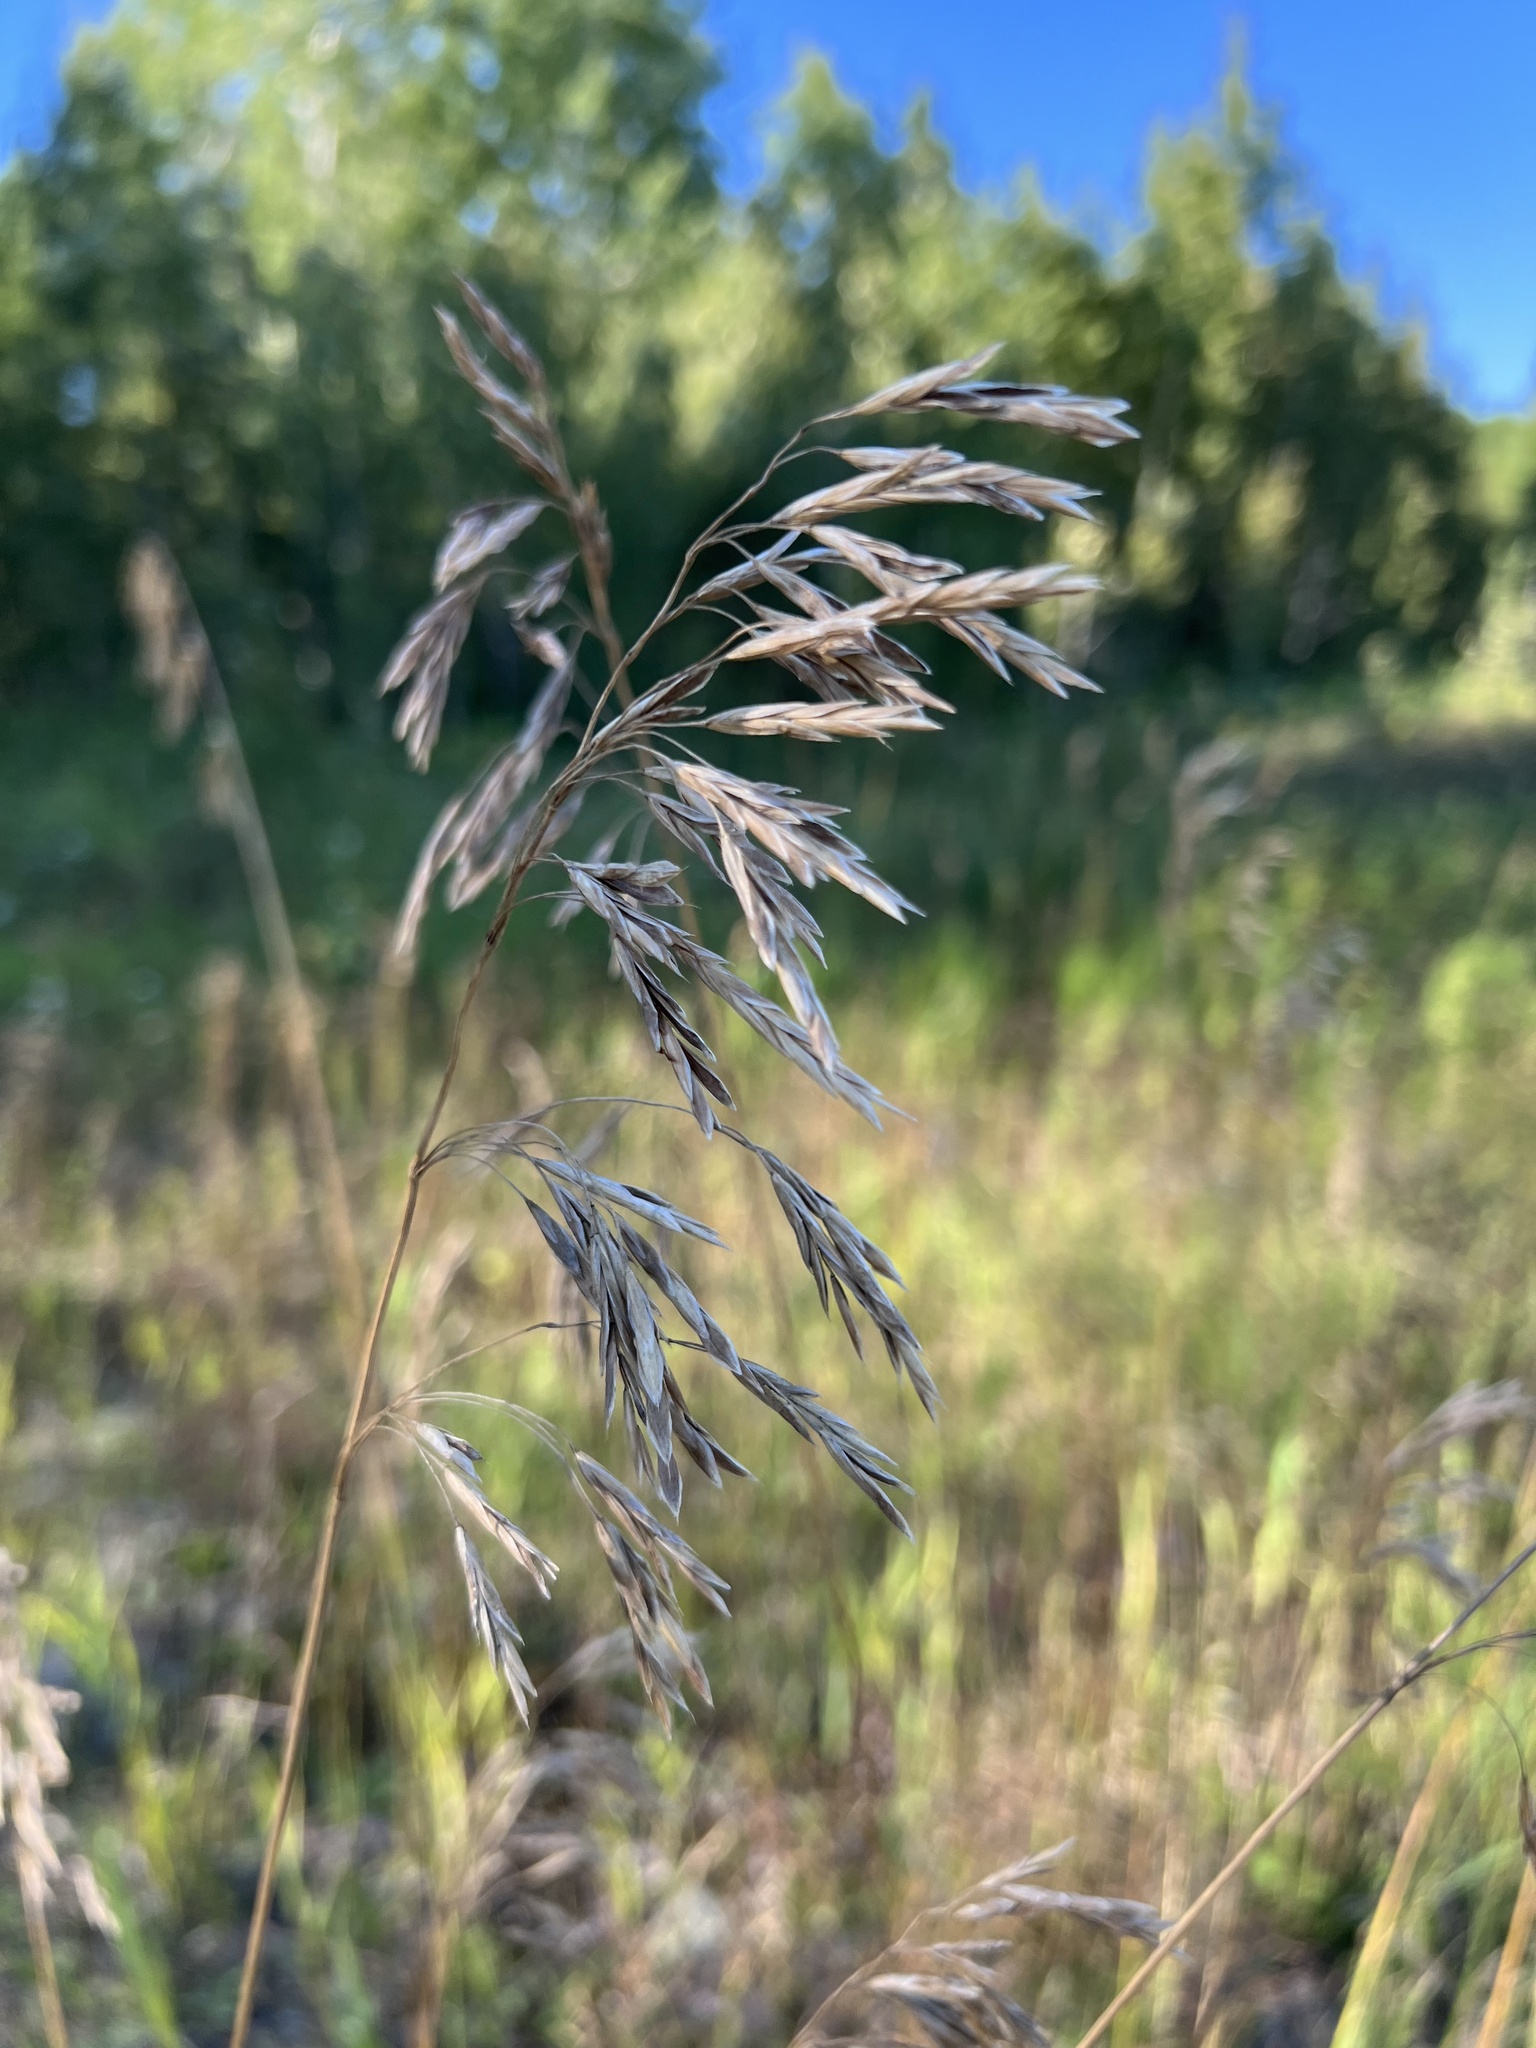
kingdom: Plantae
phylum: Tracheophyta
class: Liliopsida
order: Poales
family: Poaceae
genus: Bromus
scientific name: Bromus inermis
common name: Smooth brome
